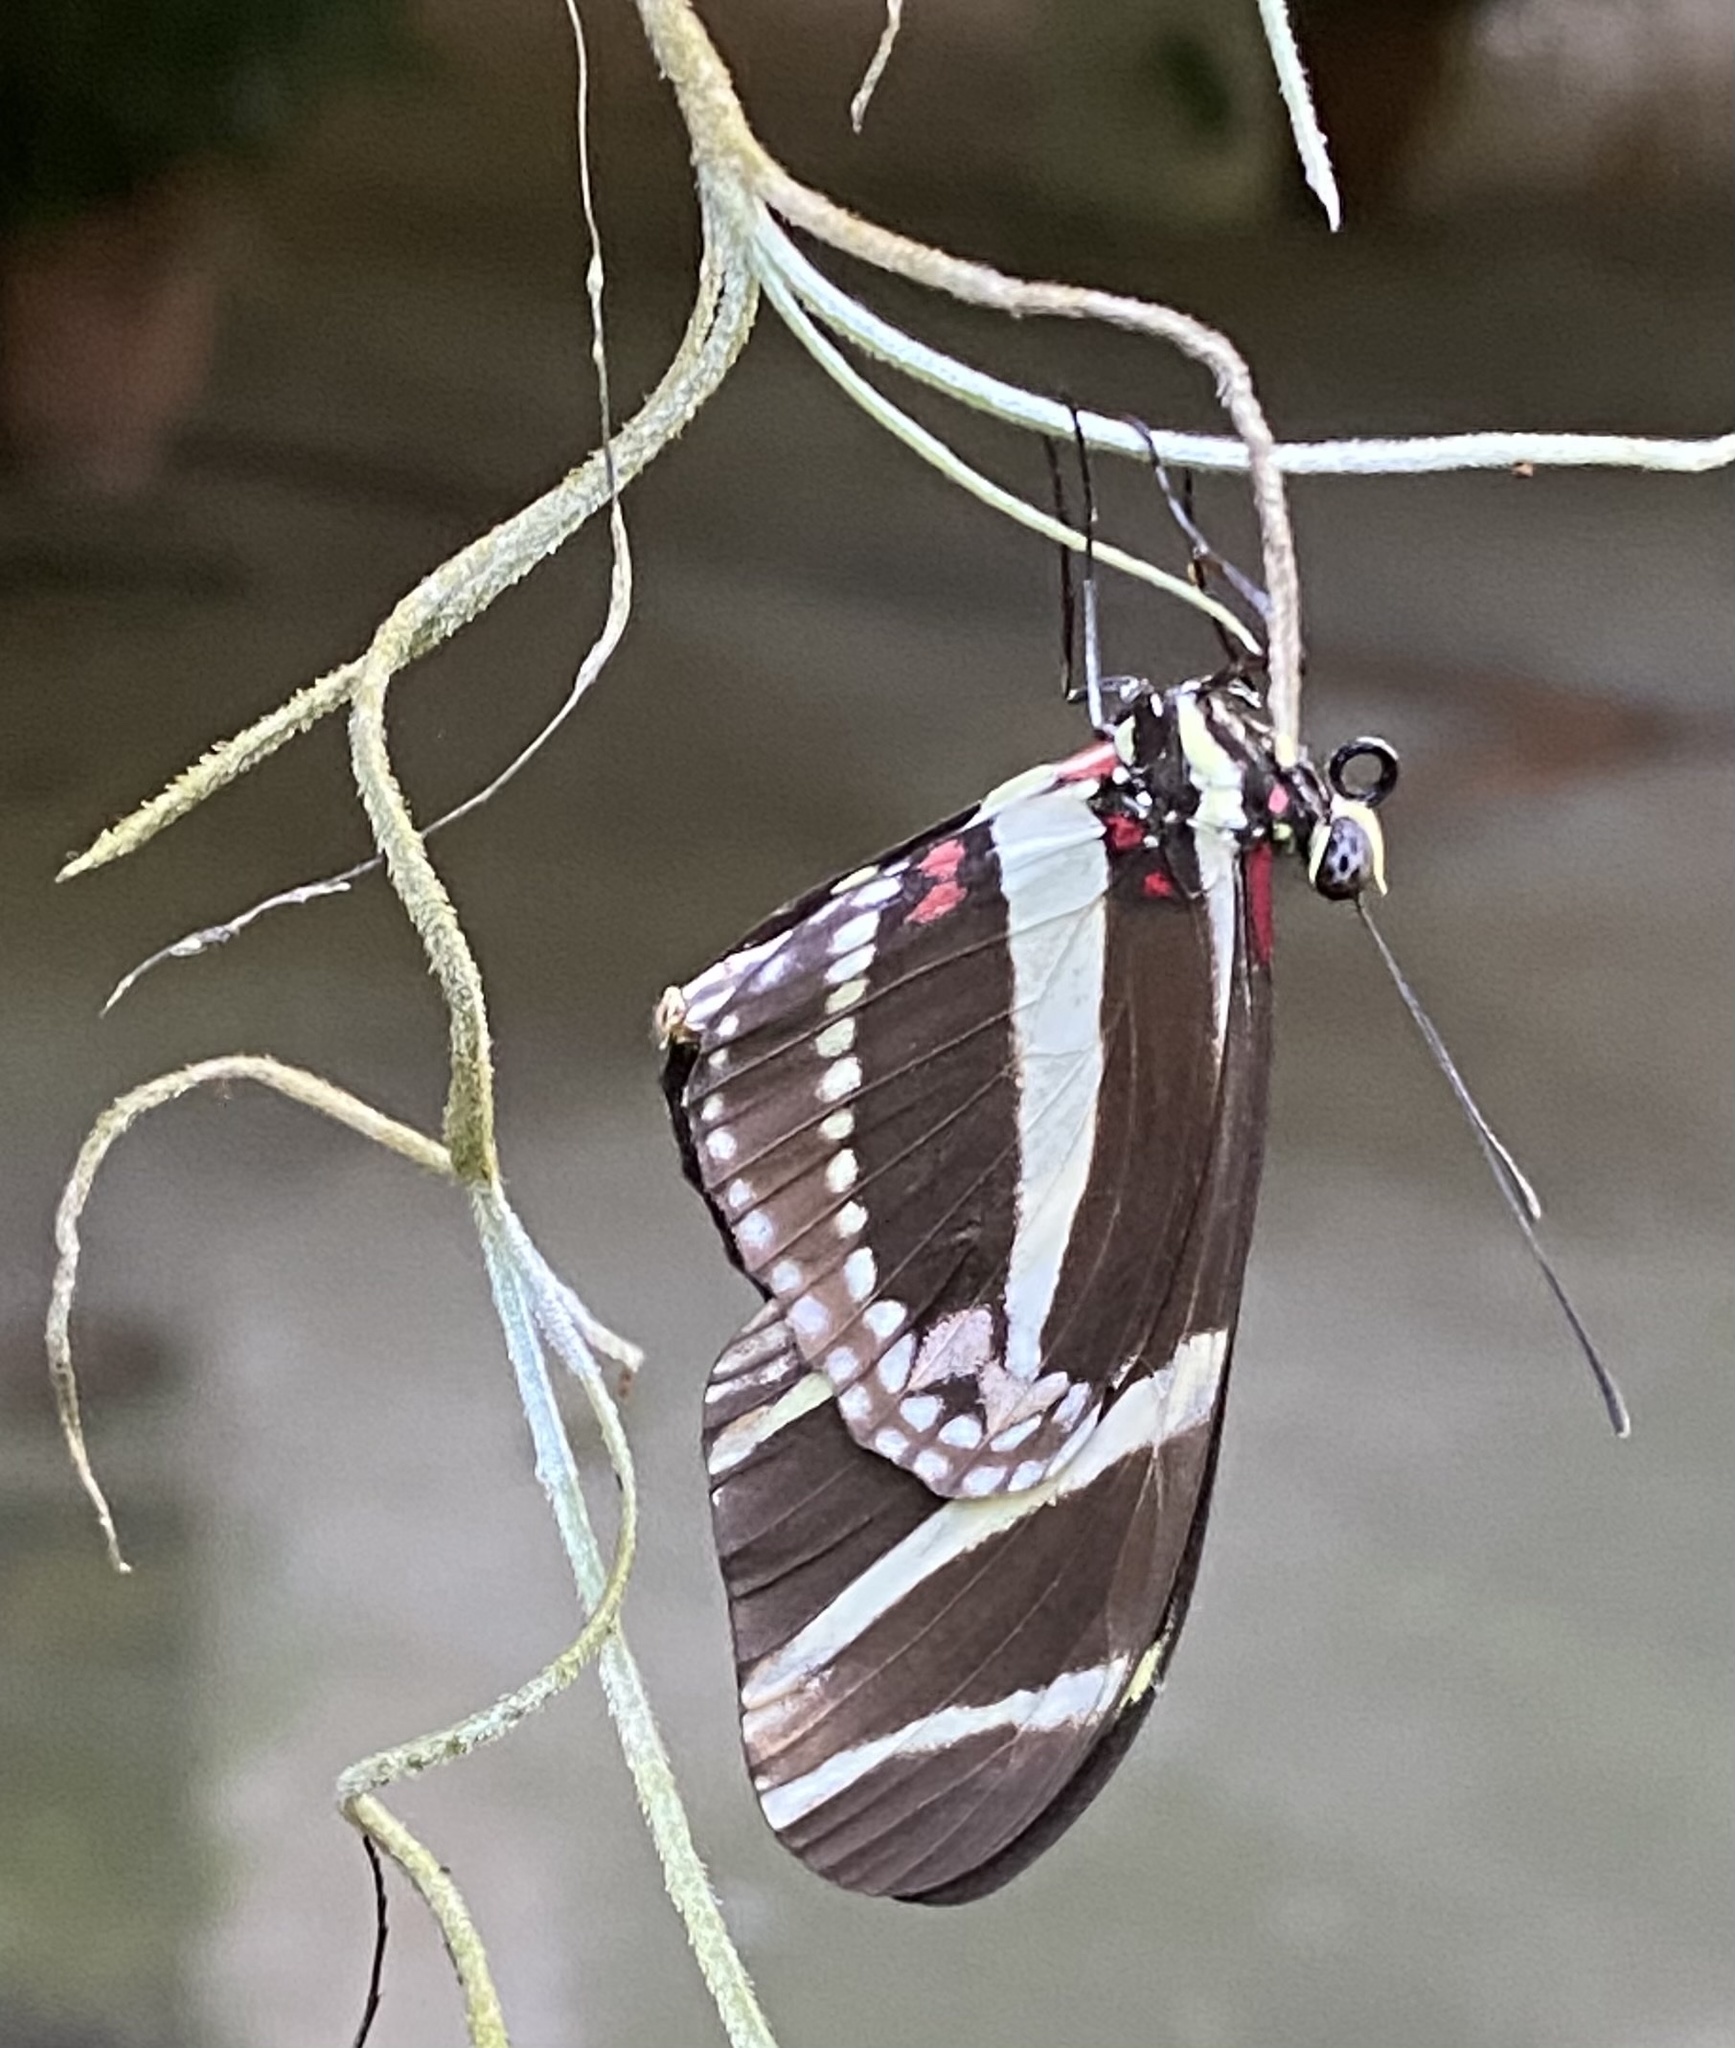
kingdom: Animalia
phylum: Arthropoda
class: Insecta
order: Lepidoptera
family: Nymphalidae
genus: Heliconius
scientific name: Heliconius charithonia
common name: Zebra long wing
